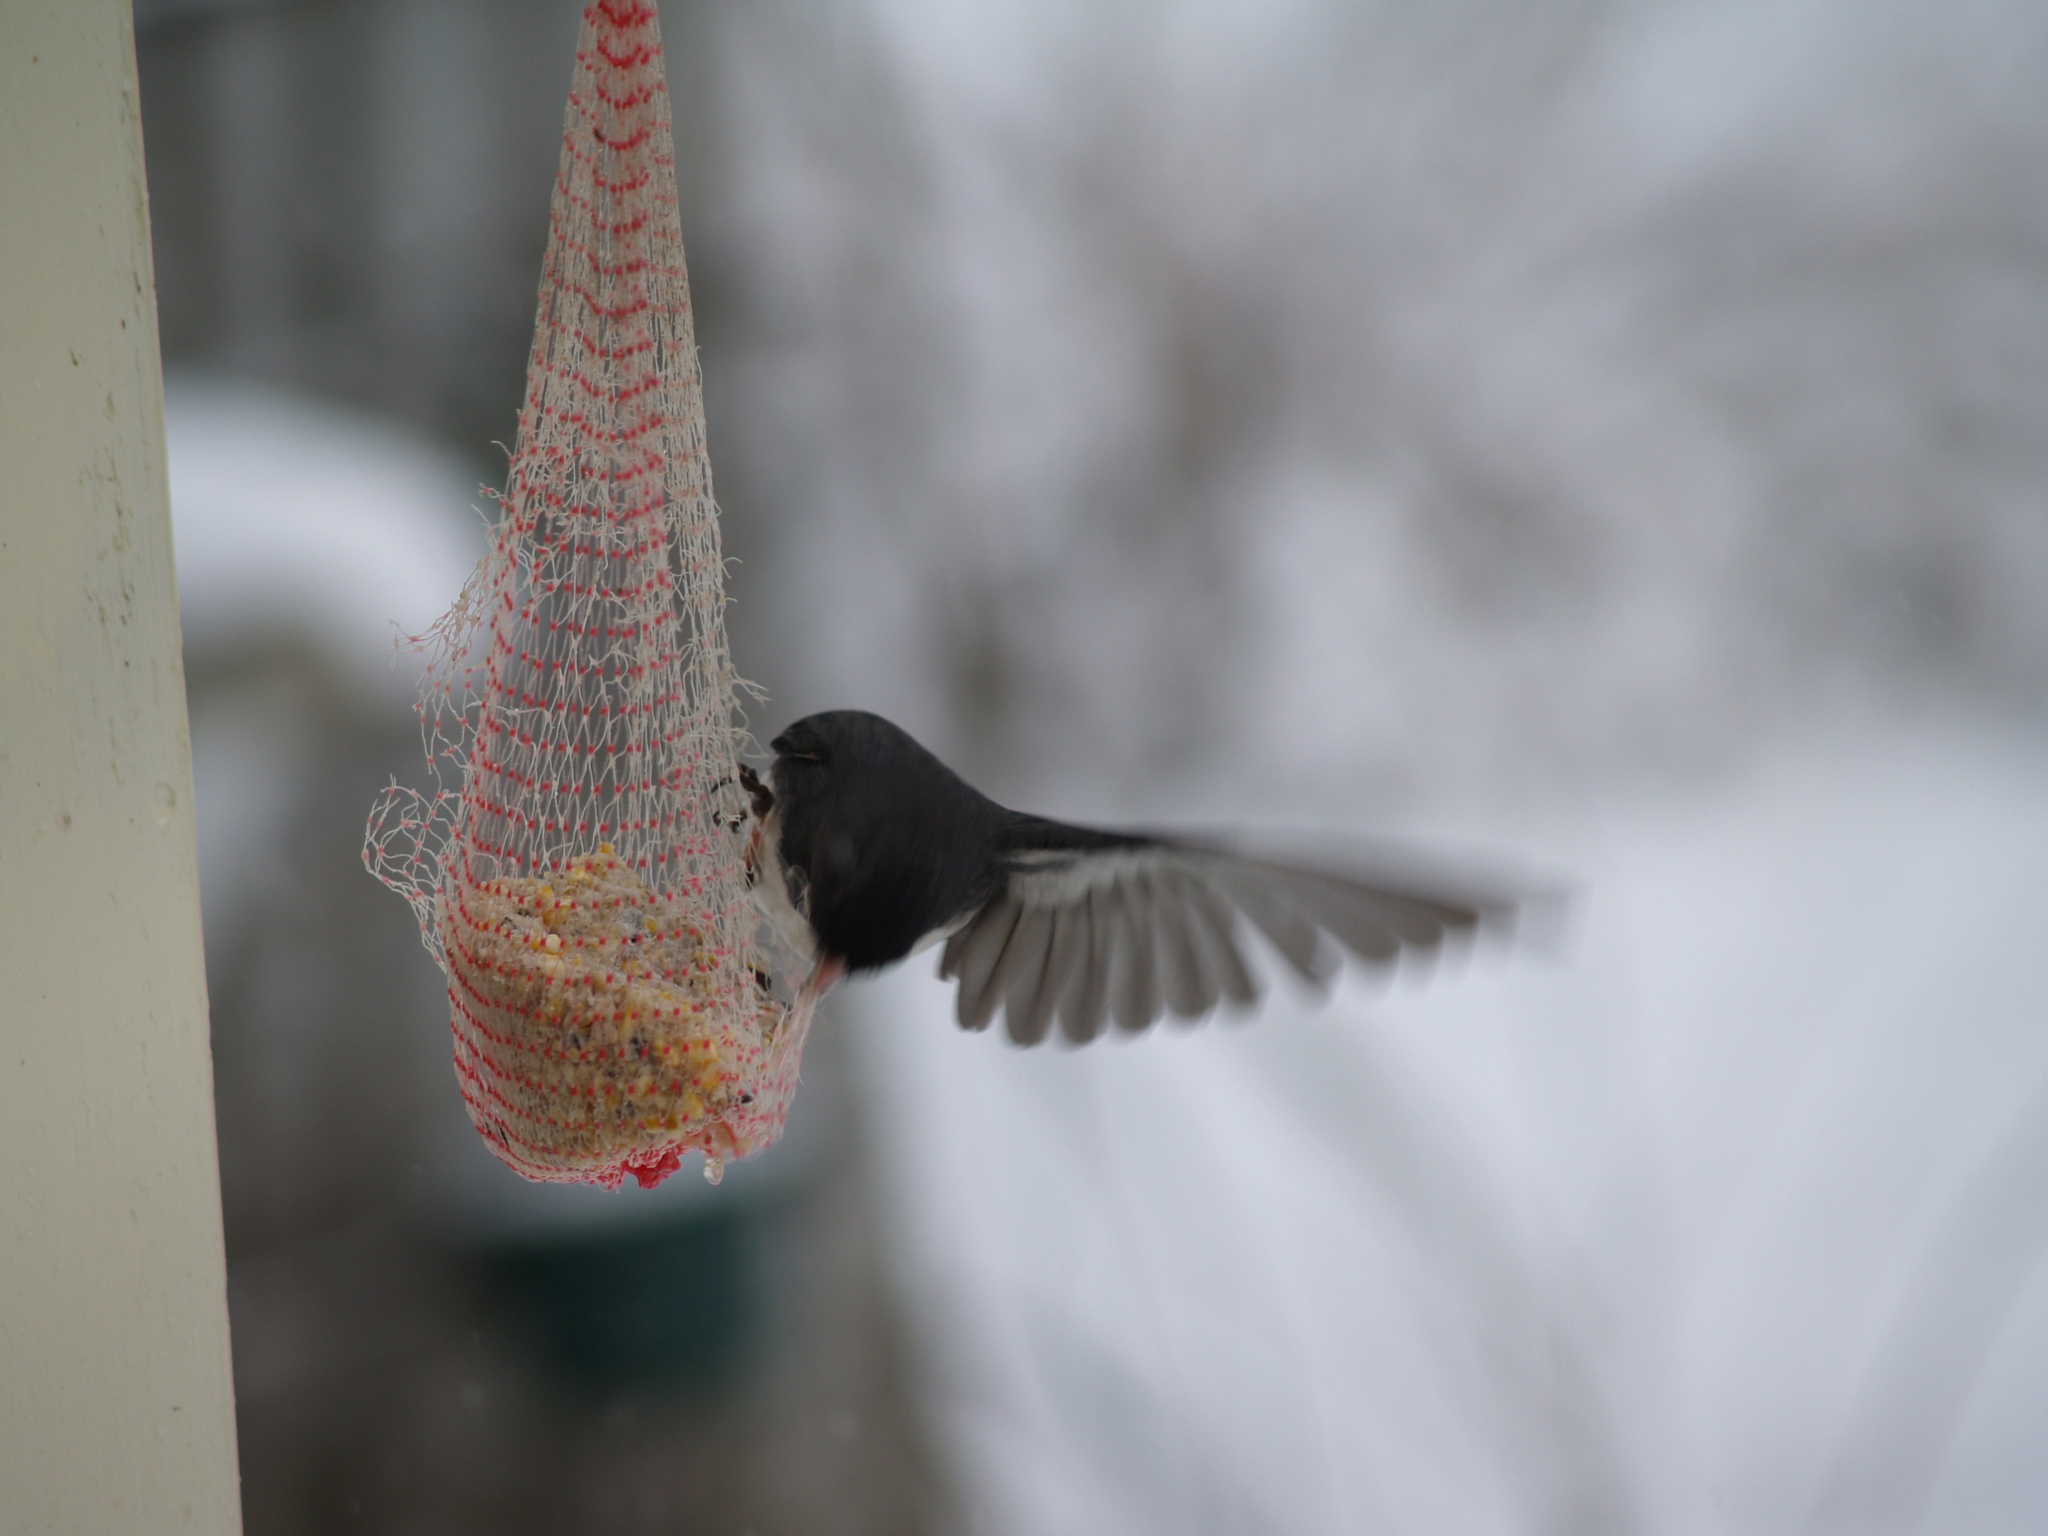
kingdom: Animalia
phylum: Chordata
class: Aves
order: Passeriformes
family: Passerellidae
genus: Junco
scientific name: Junco hyemalis
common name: Dark-eyed junco
